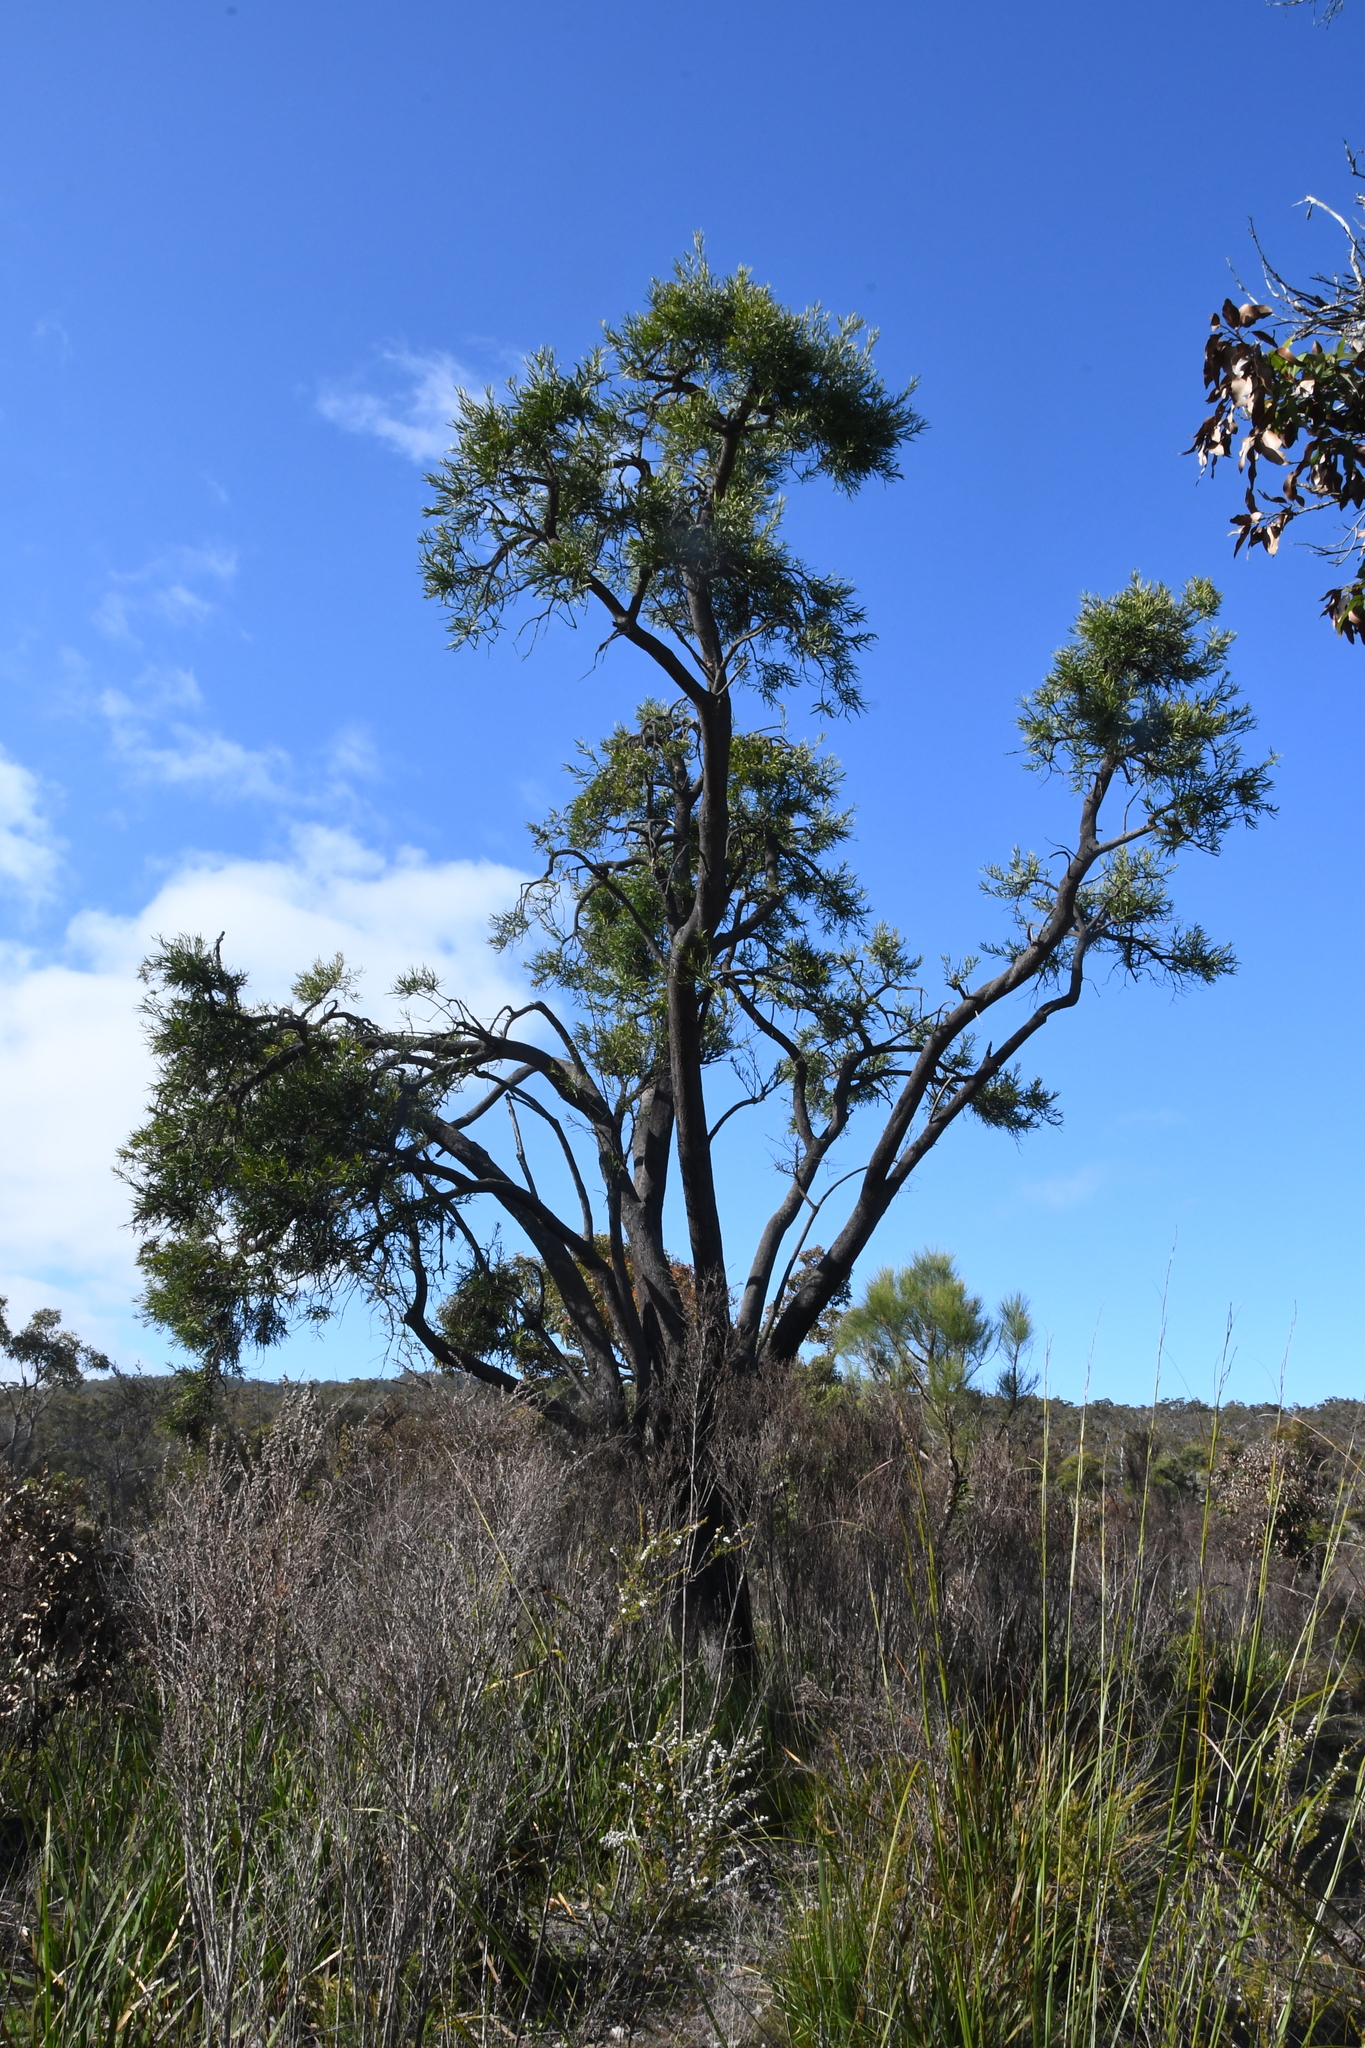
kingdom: Plantae
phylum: Tracheophyta
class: Magnoliopsida
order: Santalales
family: Loranthaceae
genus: Nuytsia
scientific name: Nuytsia floribunda
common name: Western australian christmastree
